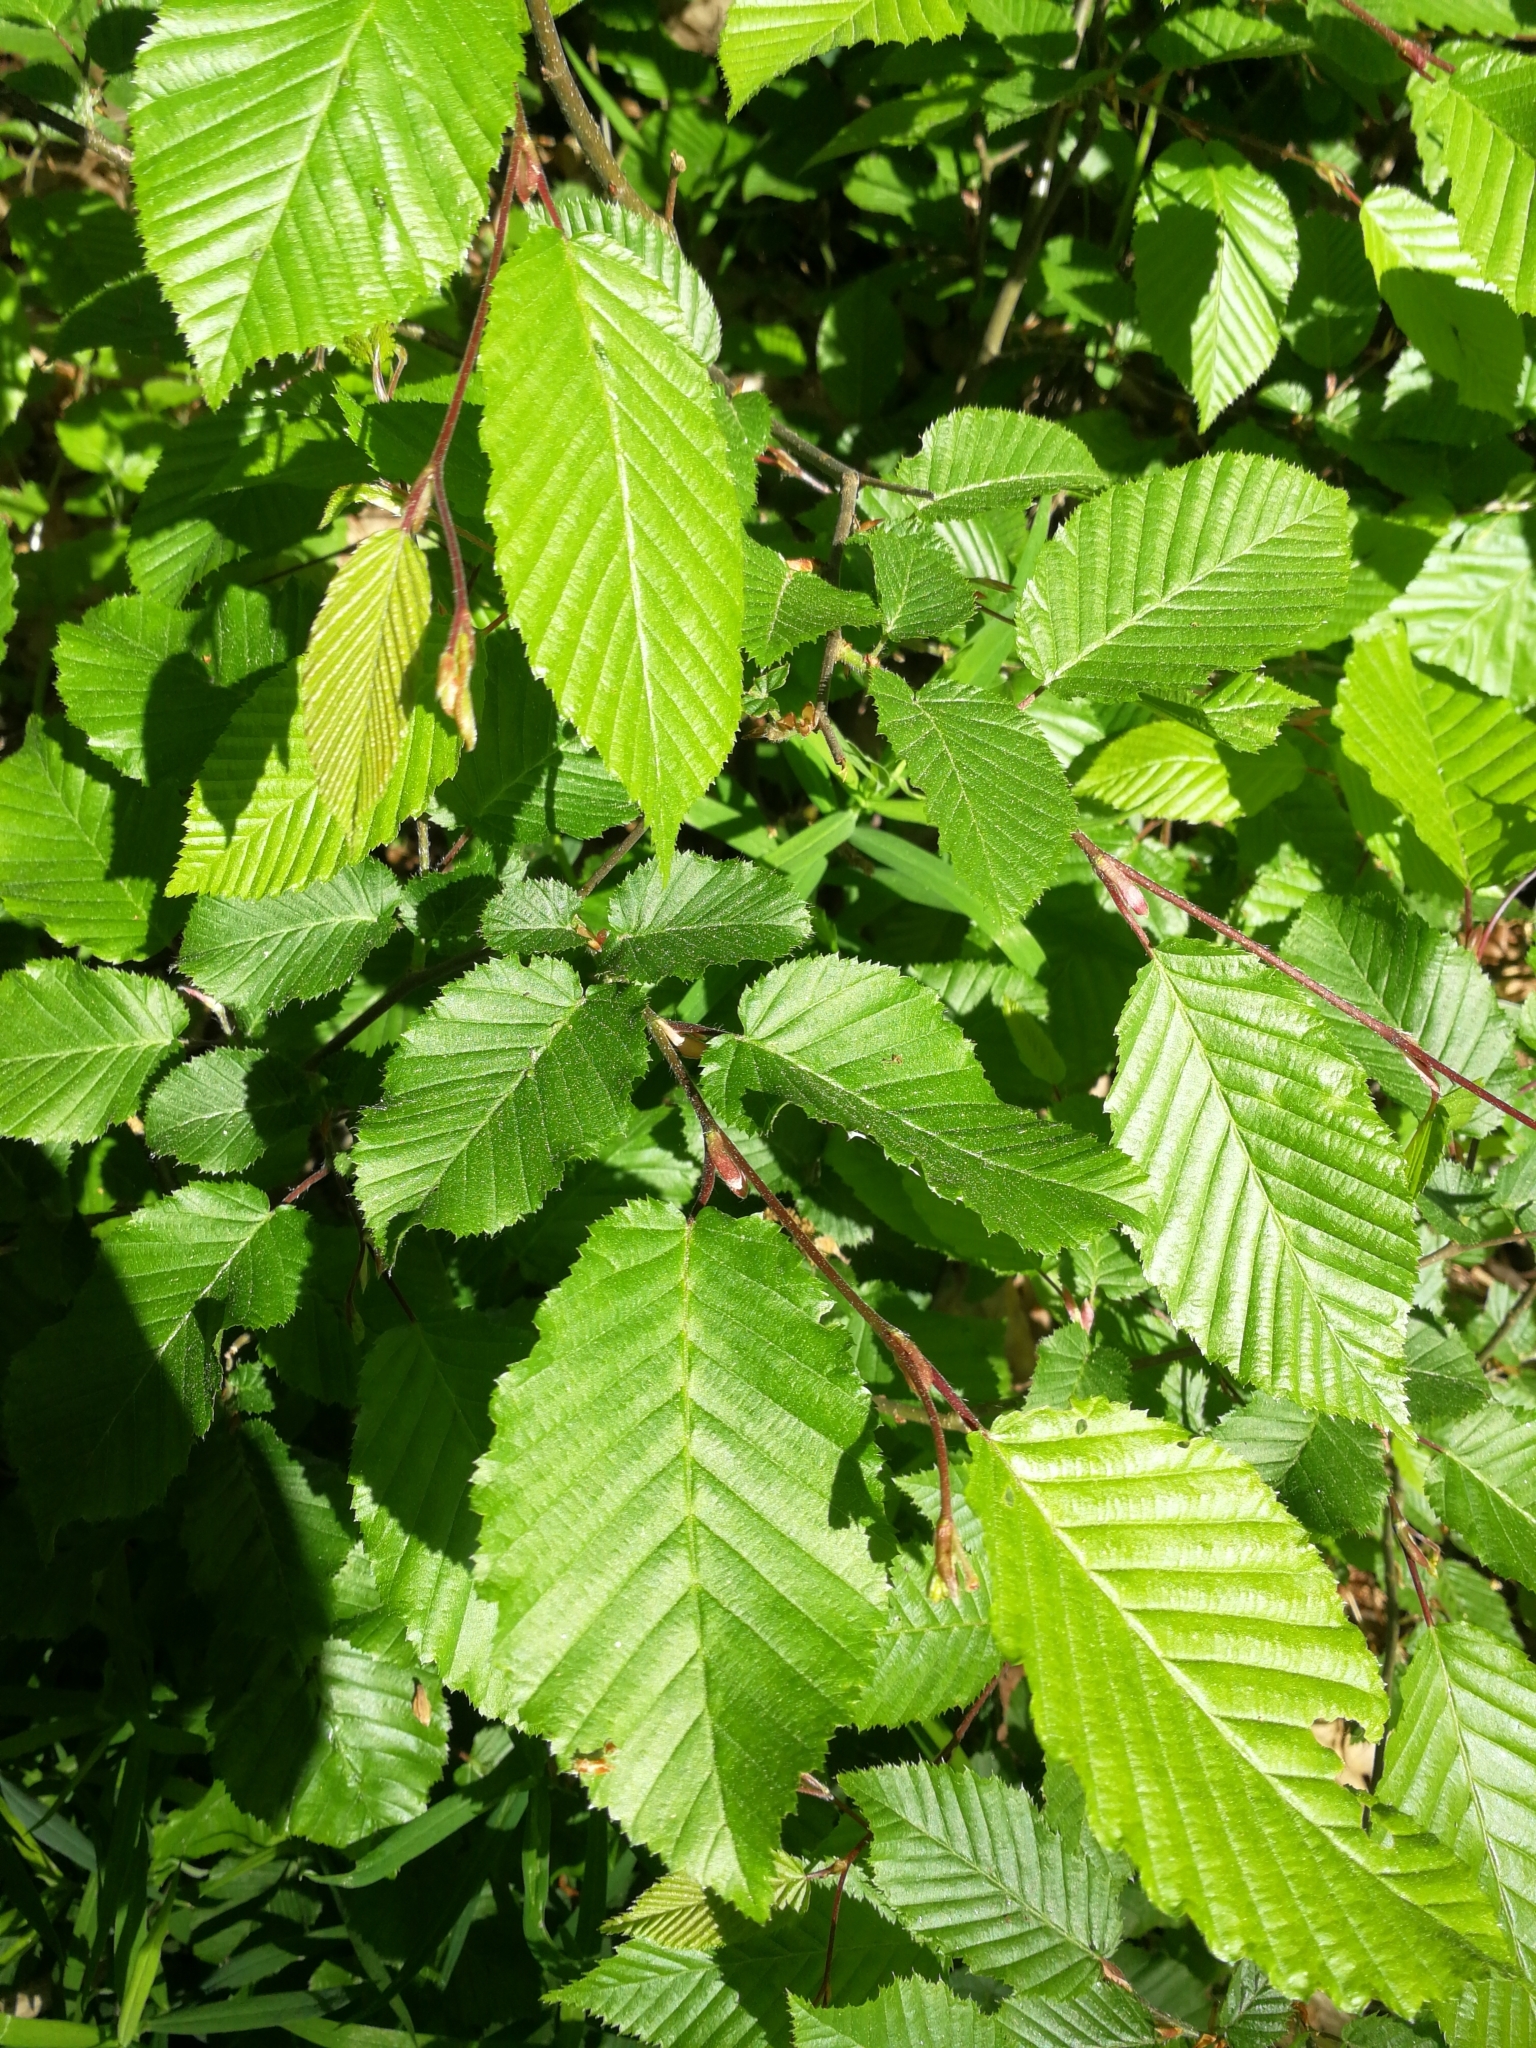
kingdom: Plantae
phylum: Tracheophyta
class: Magnoliopsida
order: Fagales
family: Betulaceae
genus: Carpinus
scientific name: Carpinus betulus
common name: Hornbeam
